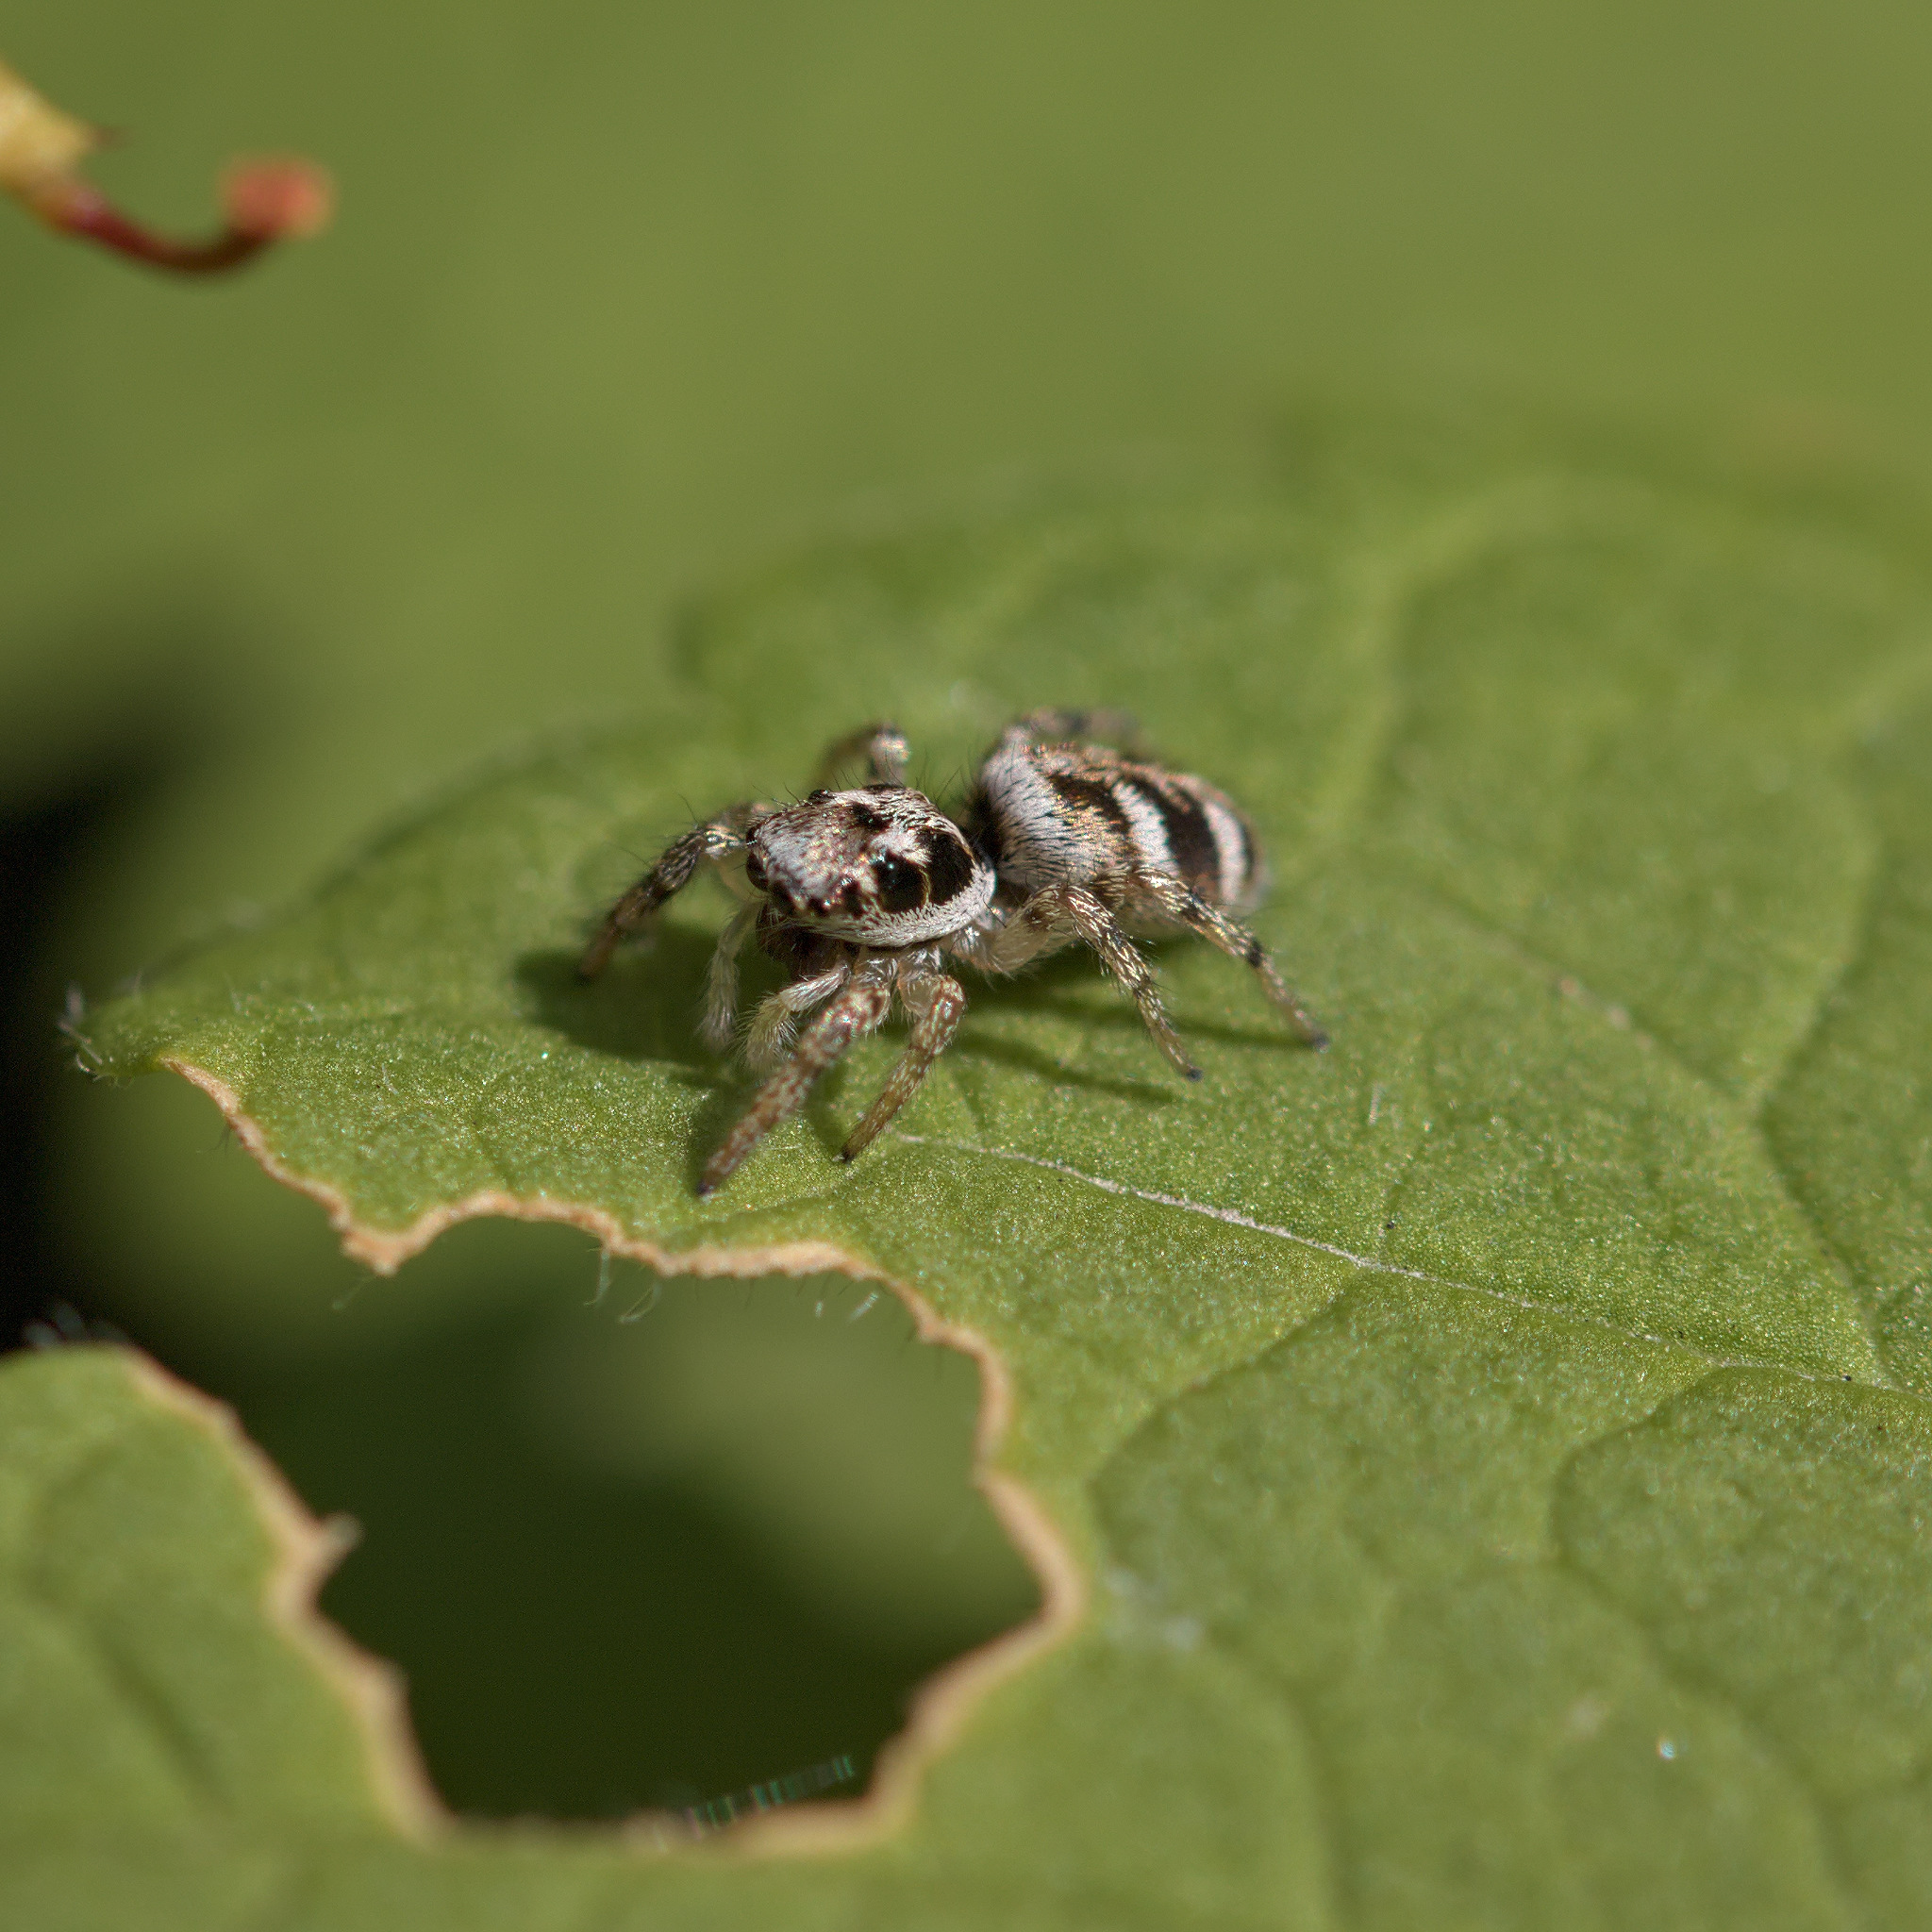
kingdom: Animalia
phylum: Arthropoda
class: Arachnida
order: Araneae
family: Salticidae
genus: Salticus
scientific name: Salticus scenicus
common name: Zebra jumper
